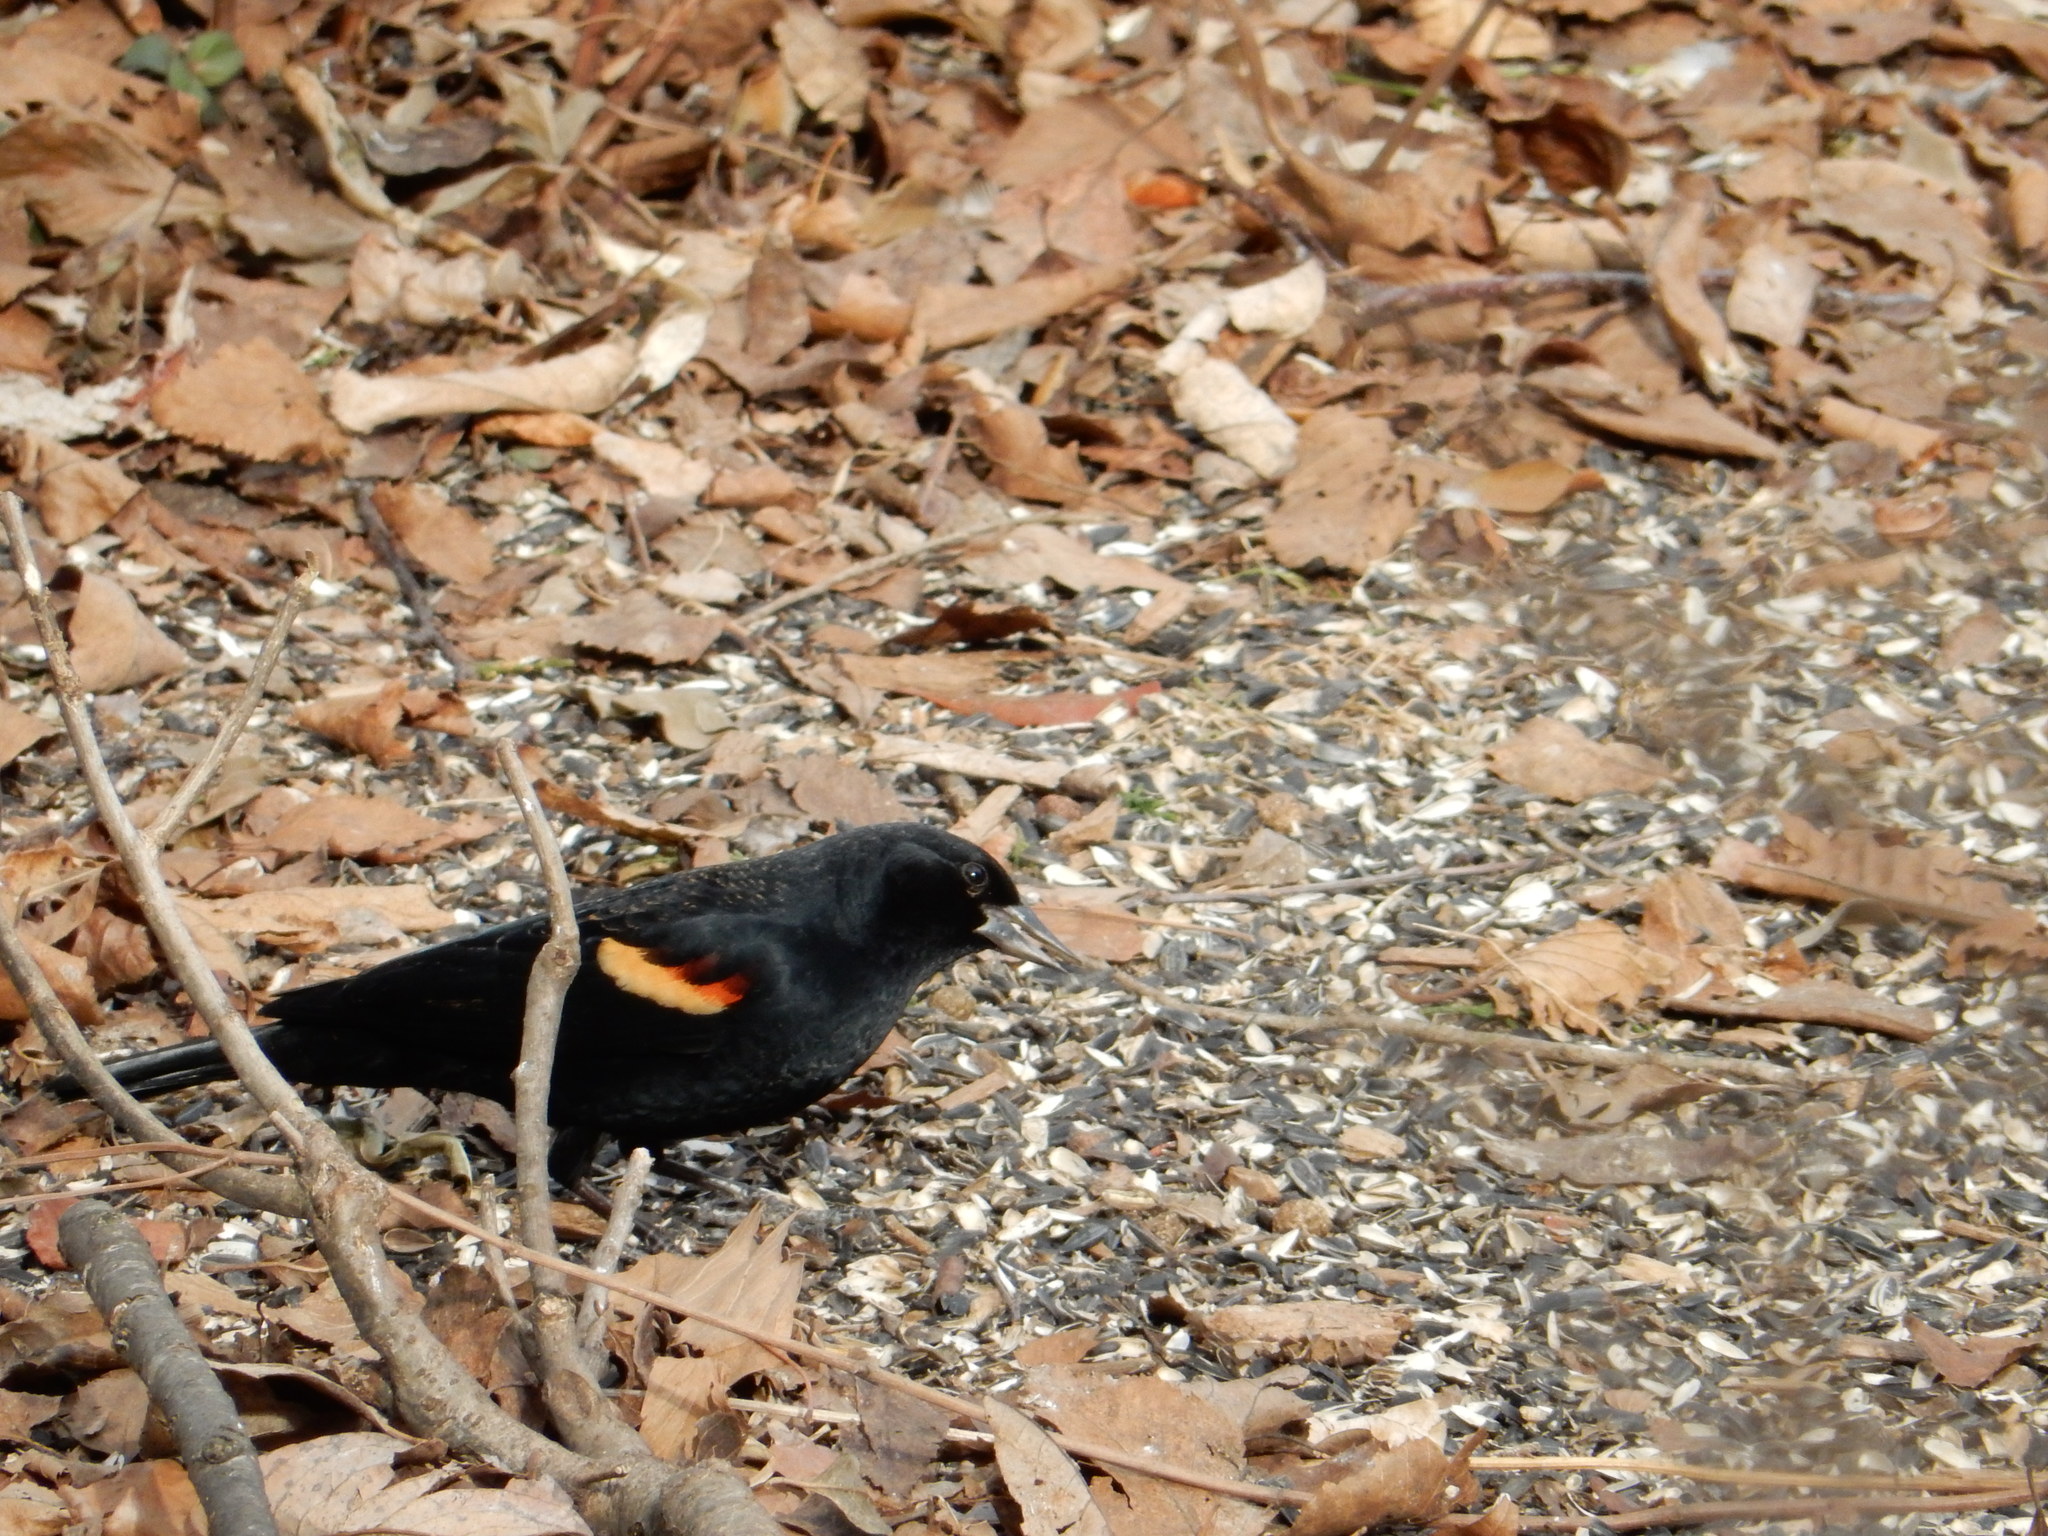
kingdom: Animalia
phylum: Chordata
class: Aves
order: Passeriformes
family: Icteridae
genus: Agelaius
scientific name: Agelaius phoeniceus
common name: Red-winged blackbird
